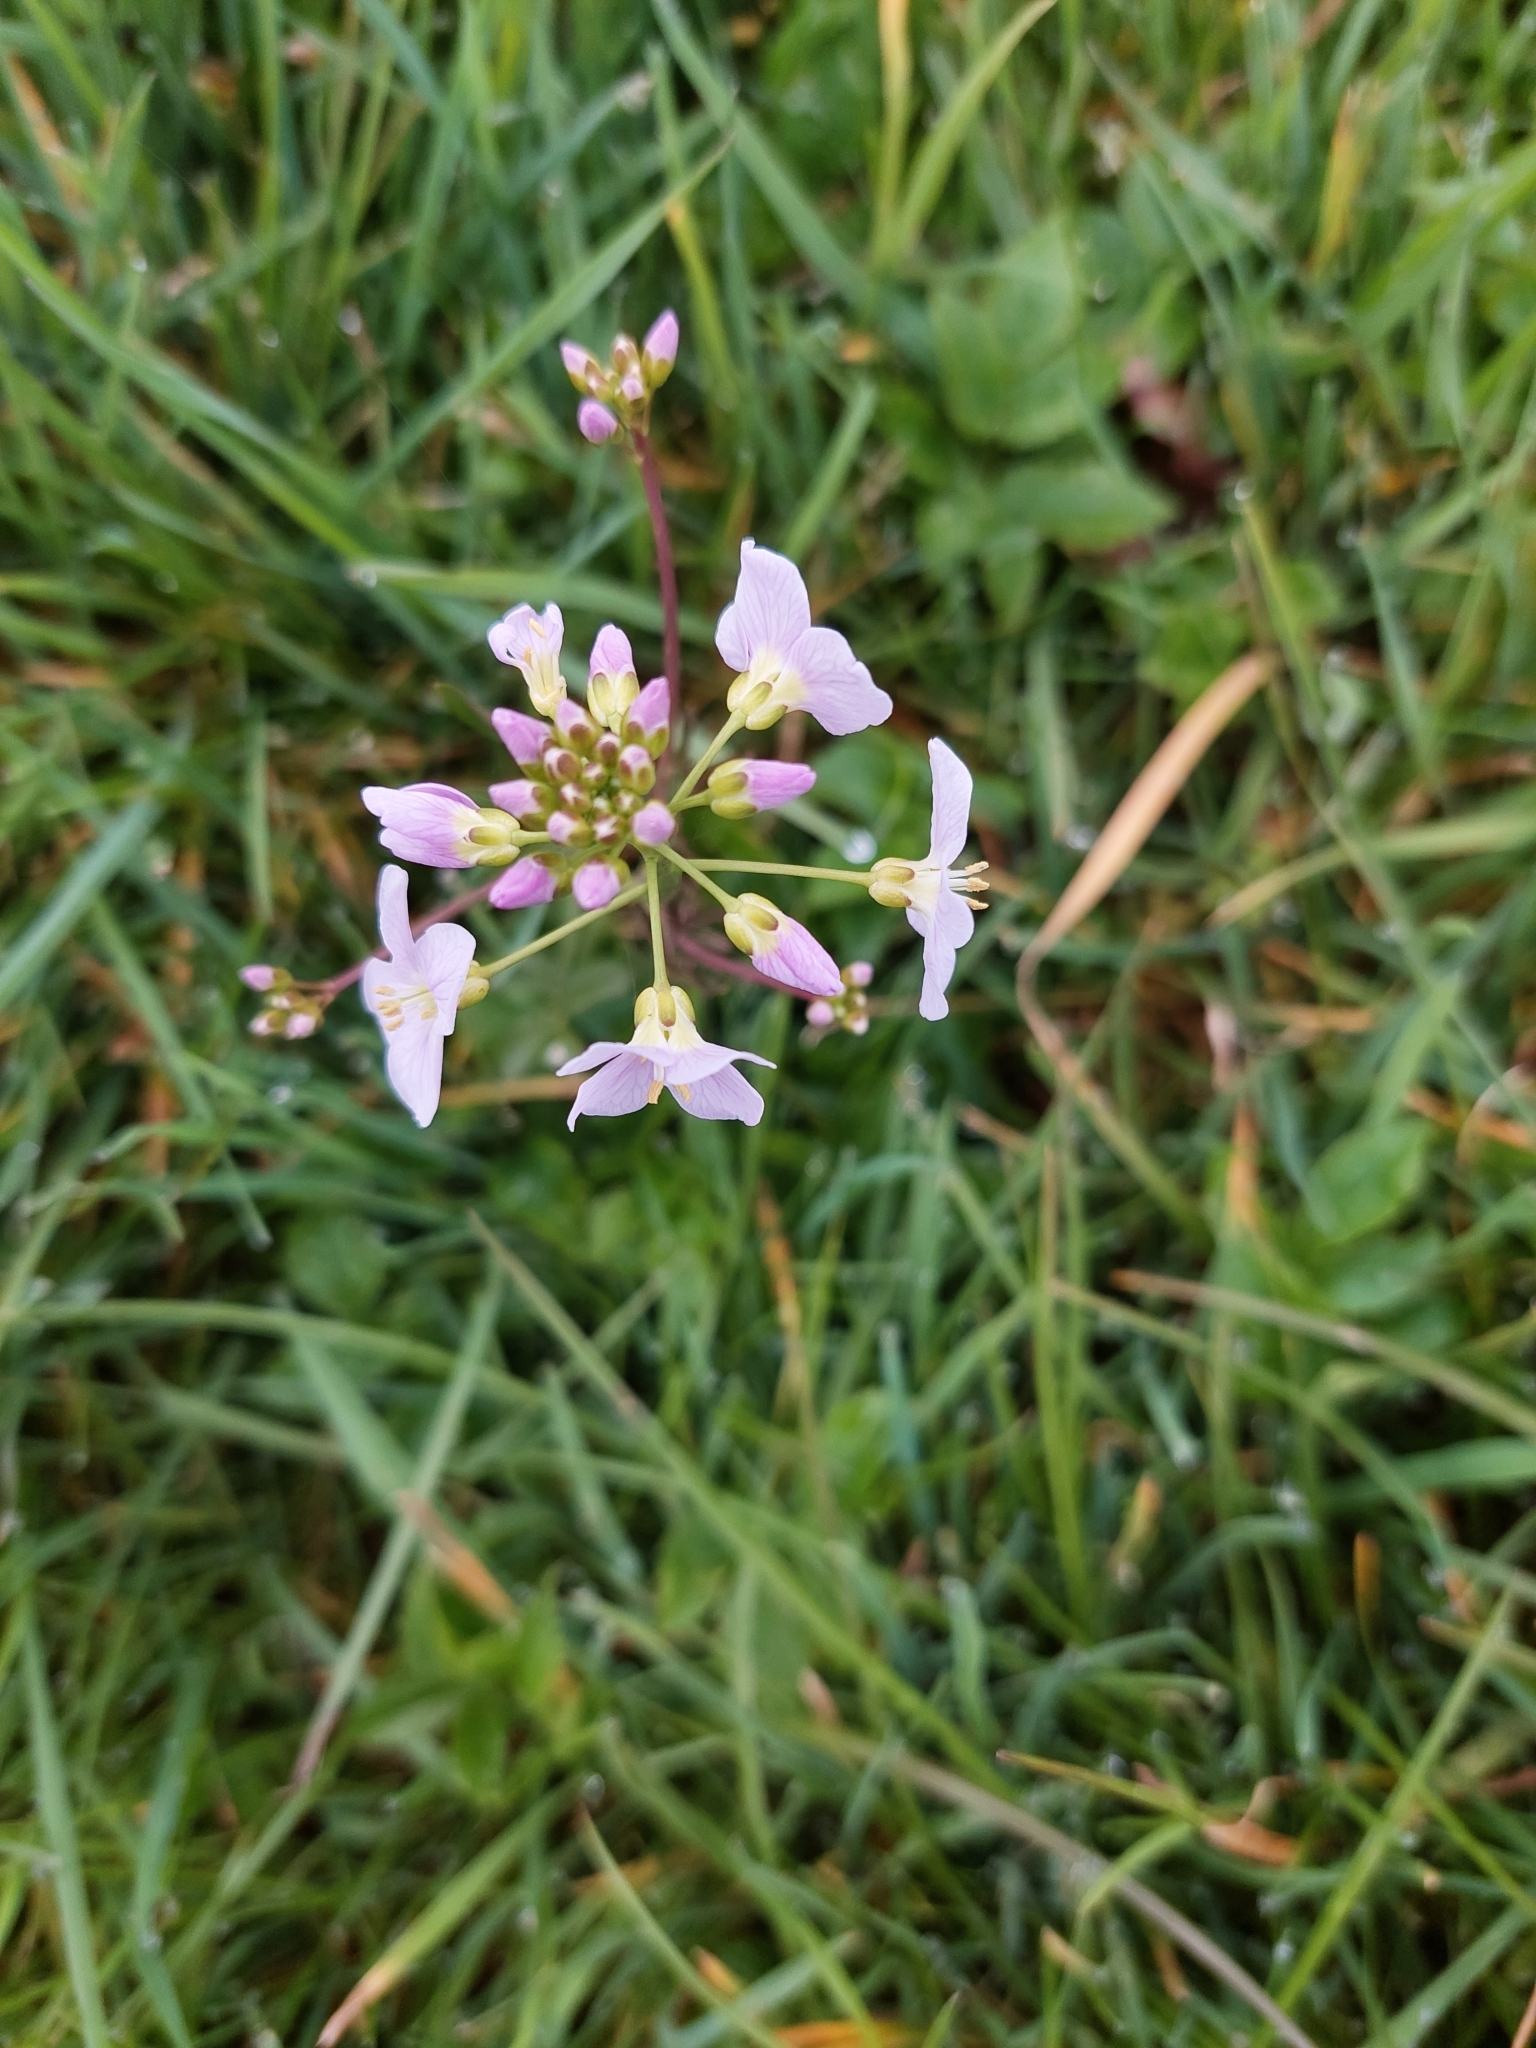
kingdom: Plantae
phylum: Tracheophyta
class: Magnoliopsida
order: Brassicales
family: Brassicaceae
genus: Cardamine
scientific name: Cardamine pratensis
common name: Cuckoo flower
